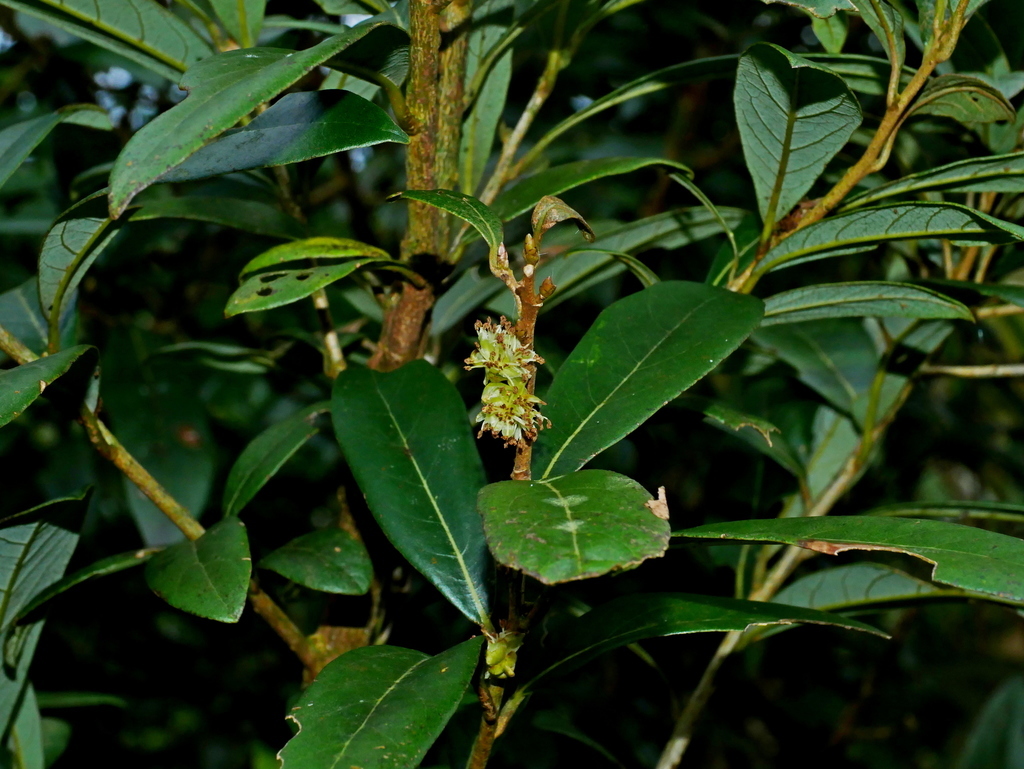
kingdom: Plantae
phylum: Tracheophyta
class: Magnoliopsida
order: Laurales
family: Lauraceae
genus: Litsea
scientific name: Litsea morrisonensis
